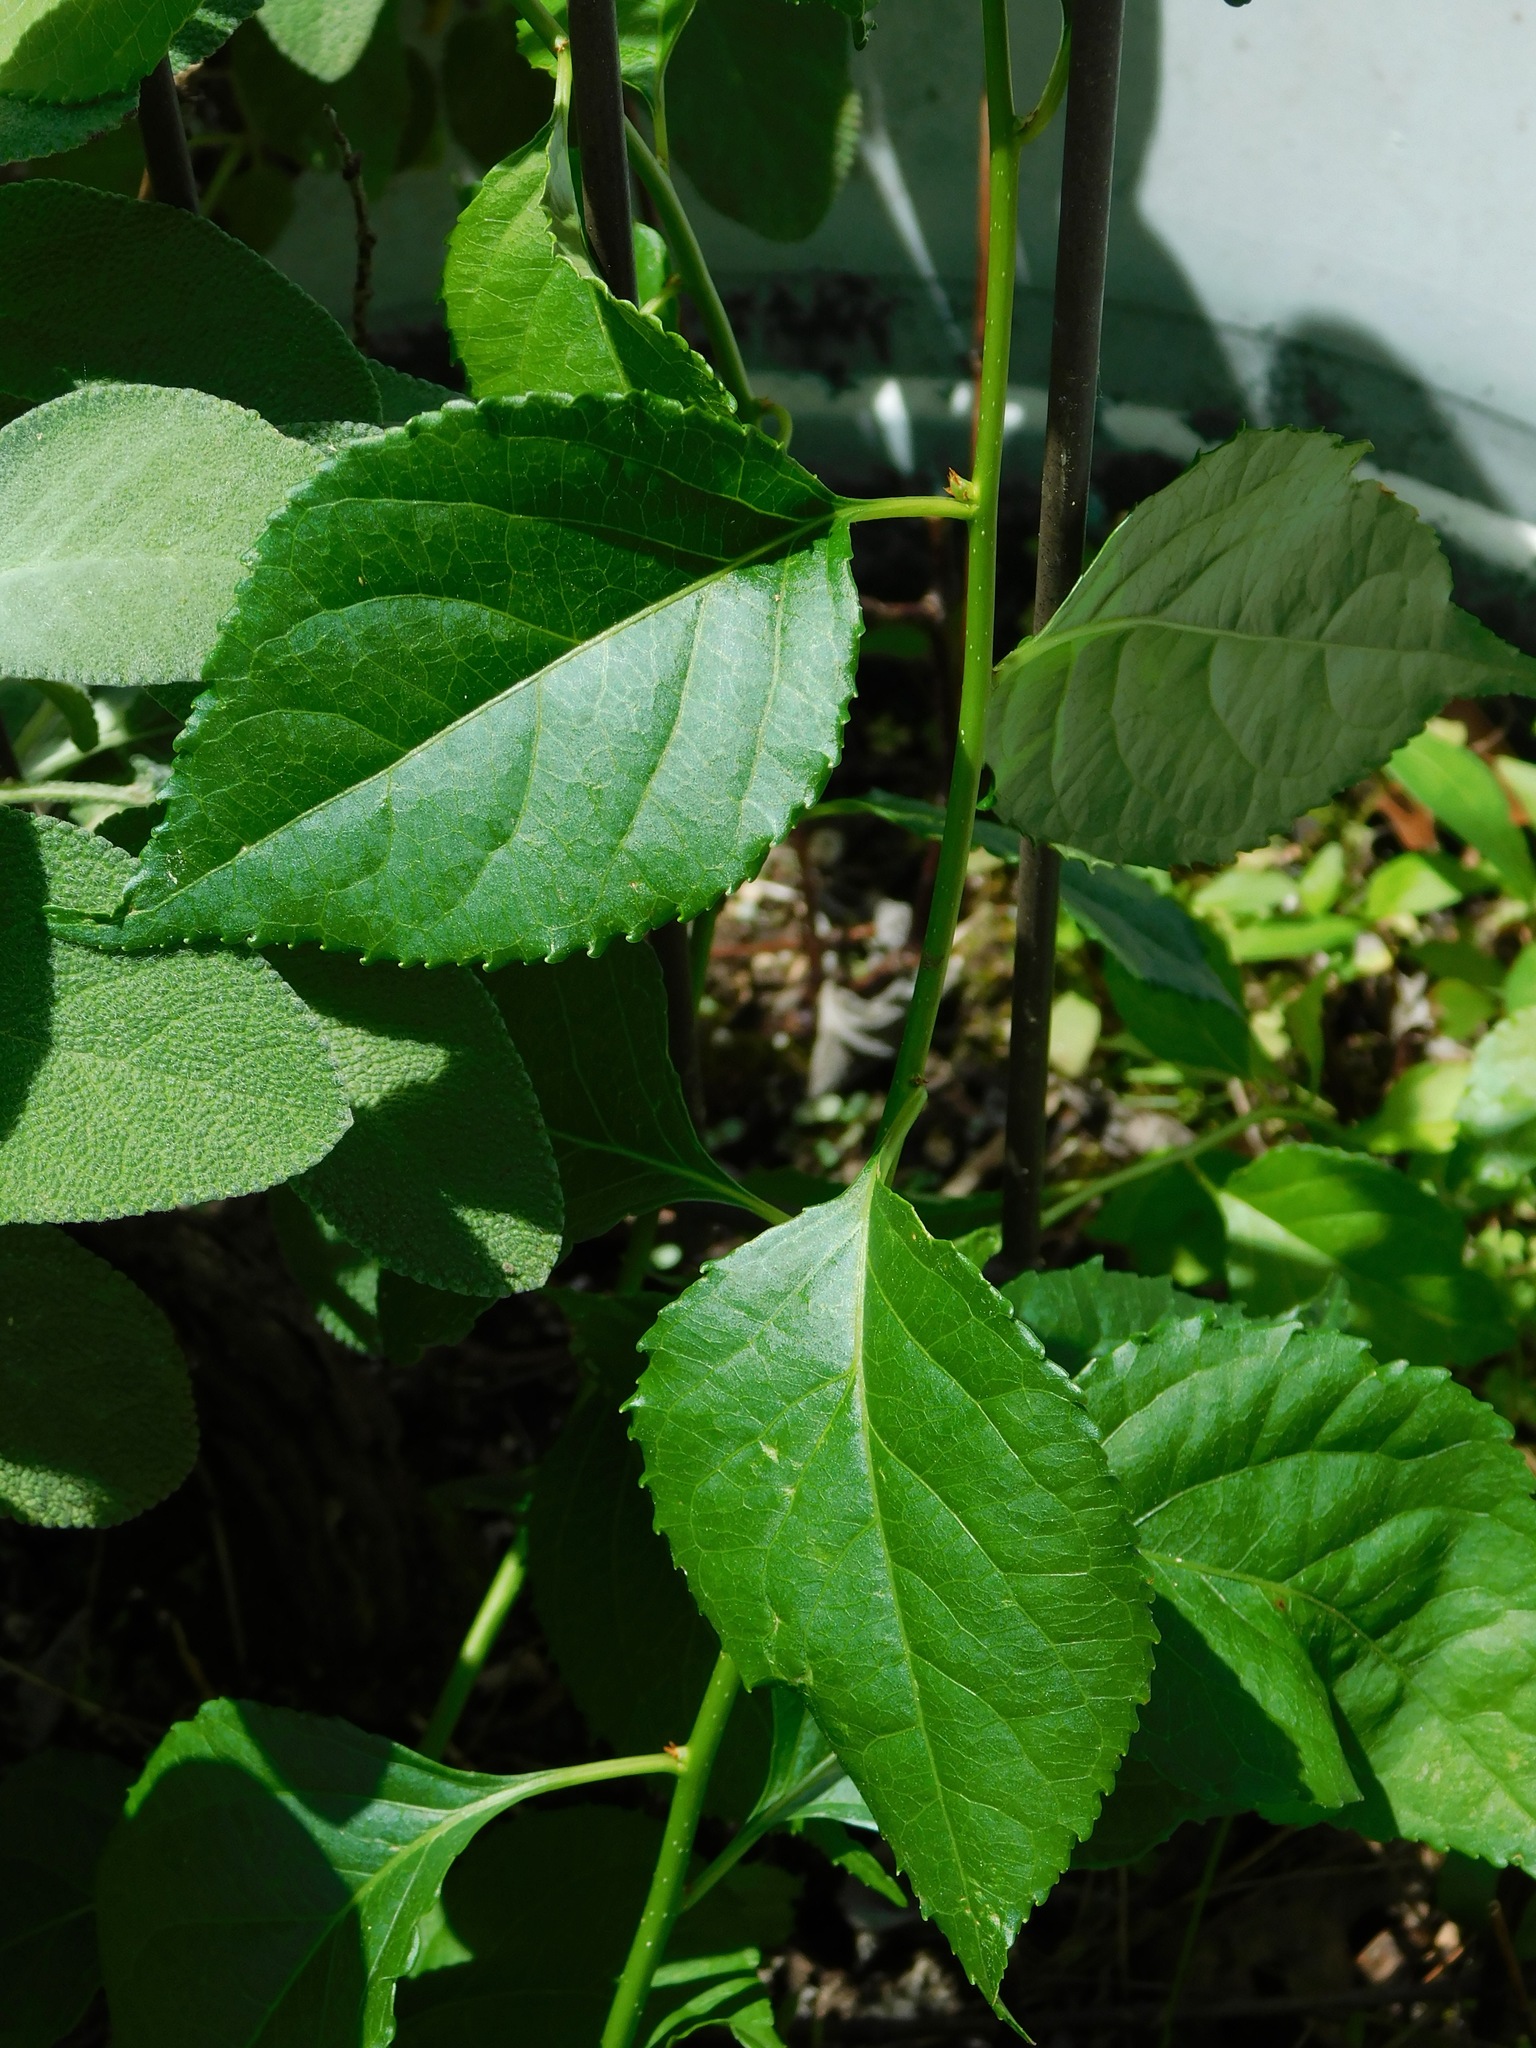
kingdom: Plantae
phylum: Tracheophyta
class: Magnoliopsida
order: Celastrales
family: Celastraceae
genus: Celastrus
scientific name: Celastrus orbiculatus
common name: Oriental bittersweet
